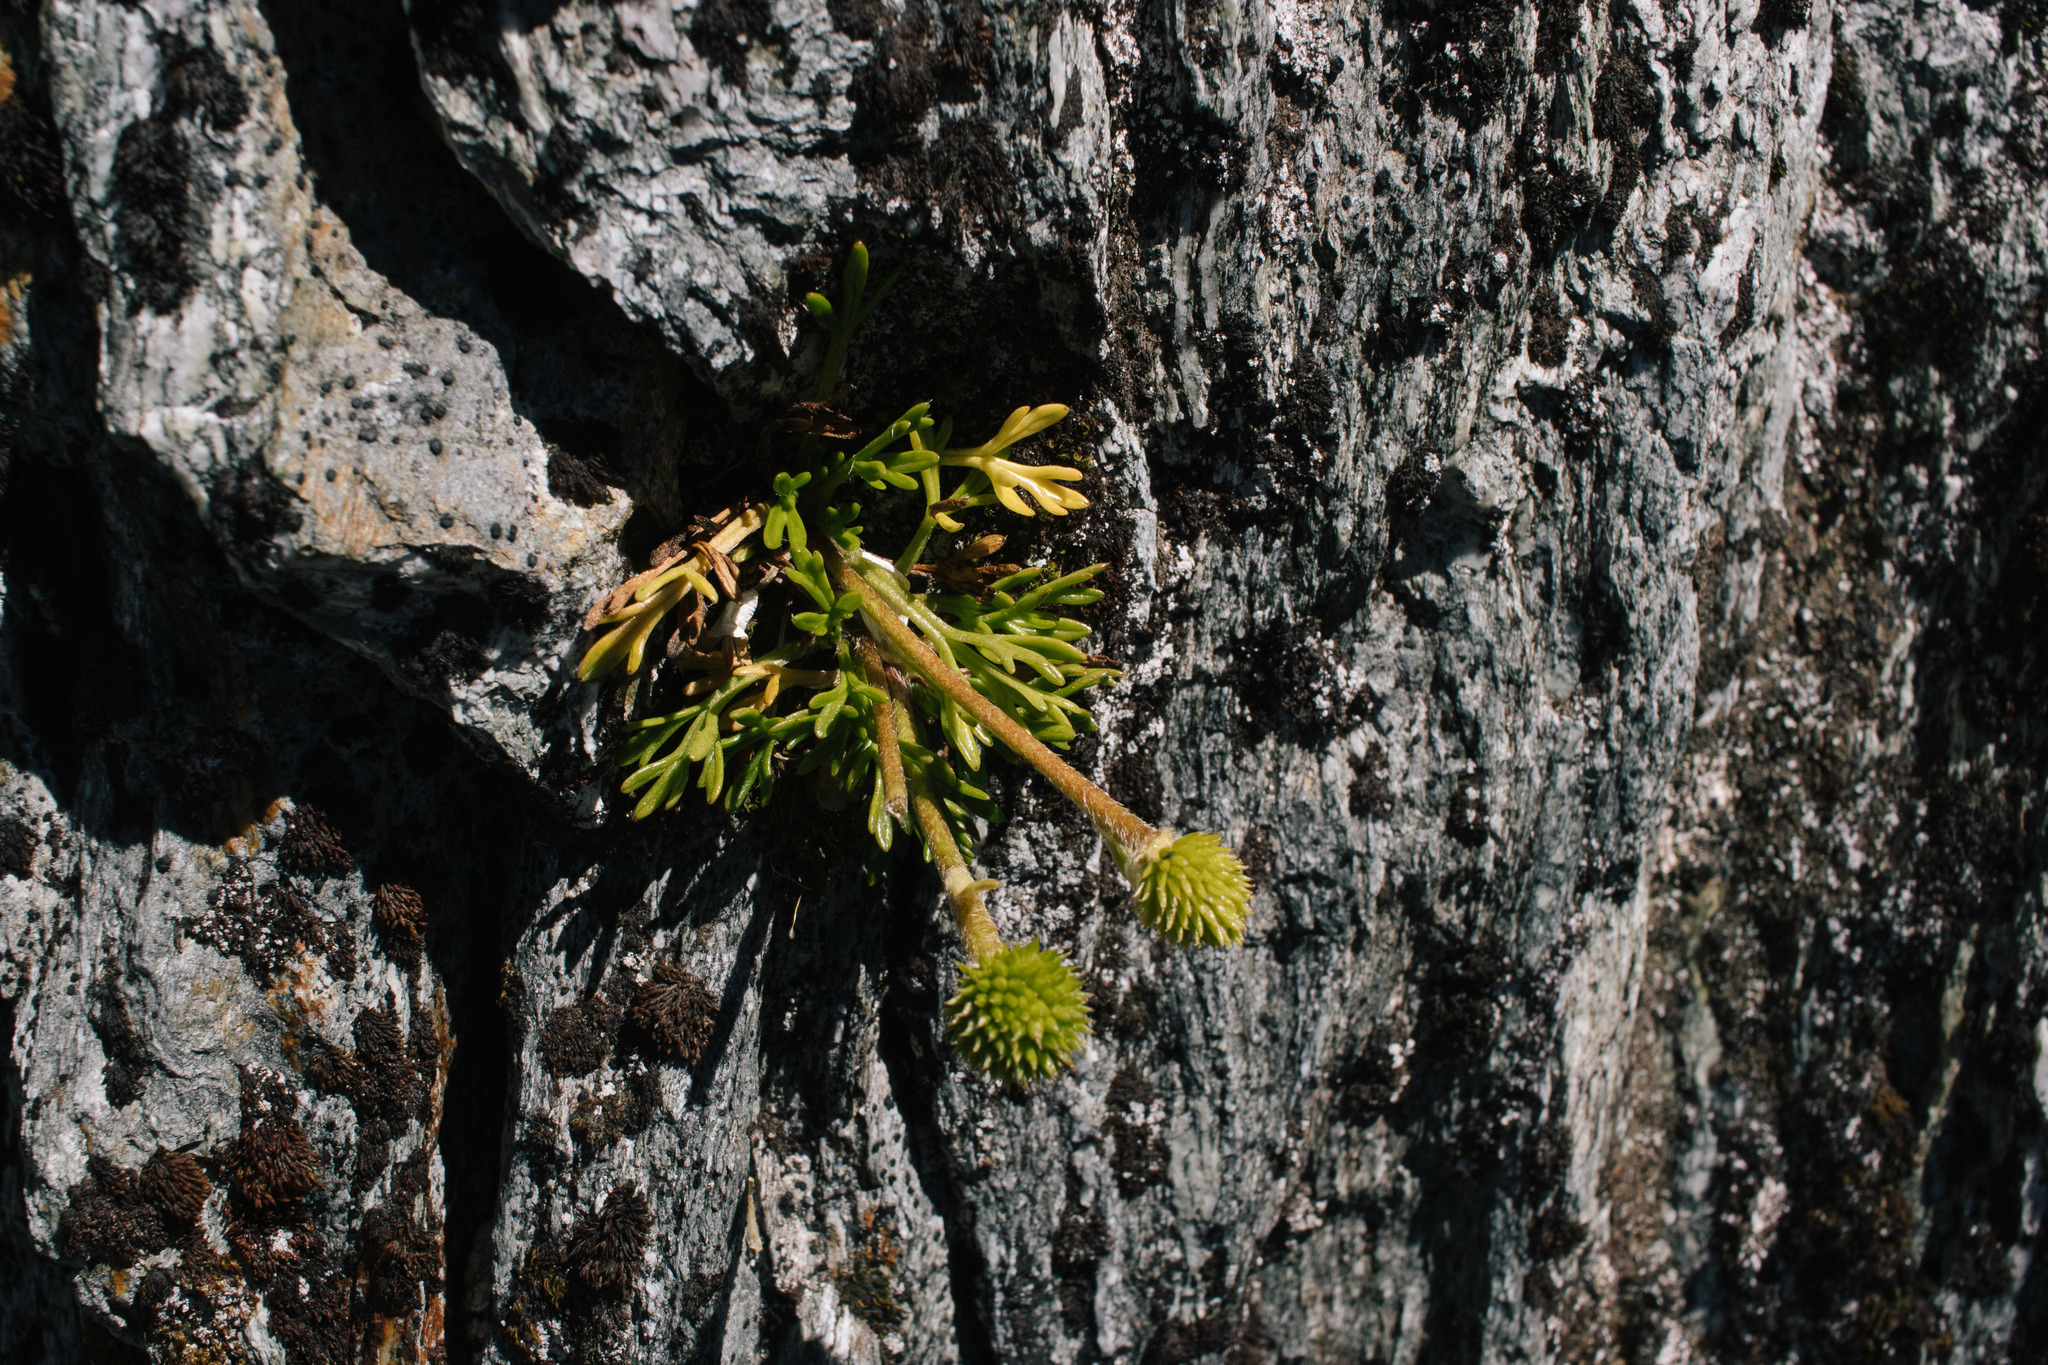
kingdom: Plantae
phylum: Tracheophyta
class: Magnoliopsida
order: Ranunculales
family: Ranunculaceae
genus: Ranunculus
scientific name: Ranunculus sericophyllus
